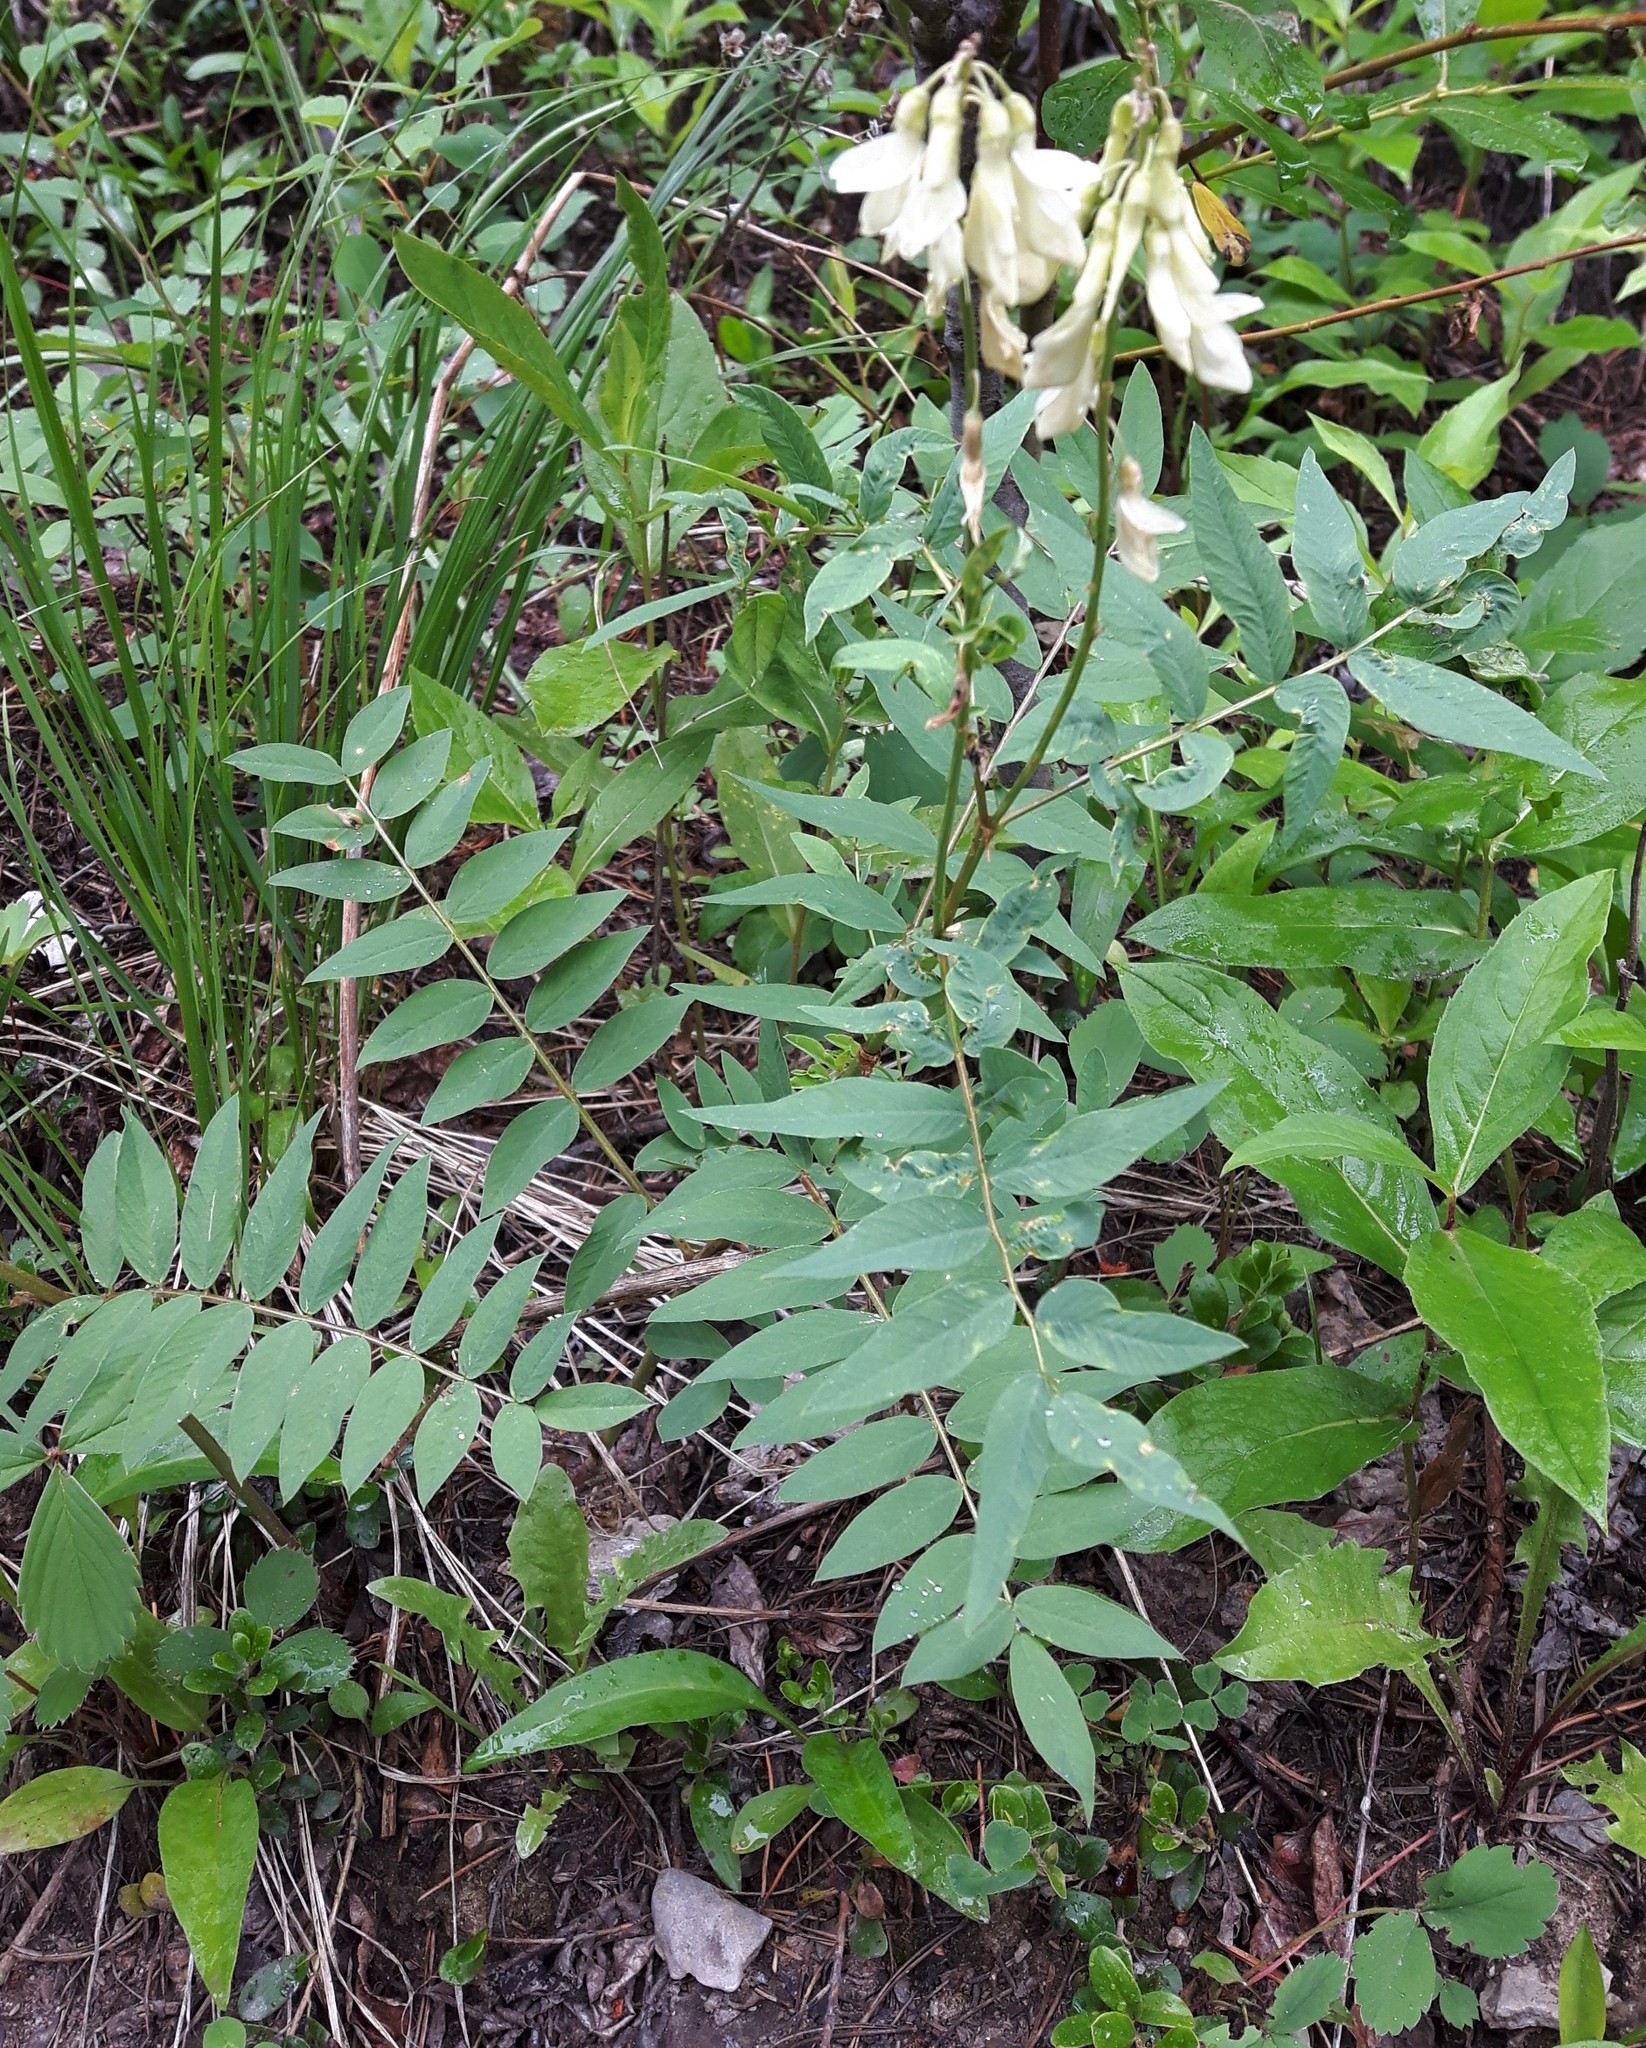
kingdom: Plantae
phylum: Tracheophyta
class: Magnoliopsida
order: Fabales
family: Fabaceae
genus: Hedysarum
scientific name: Hedysarum sulphurescens
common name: Sulphur hedysarum
